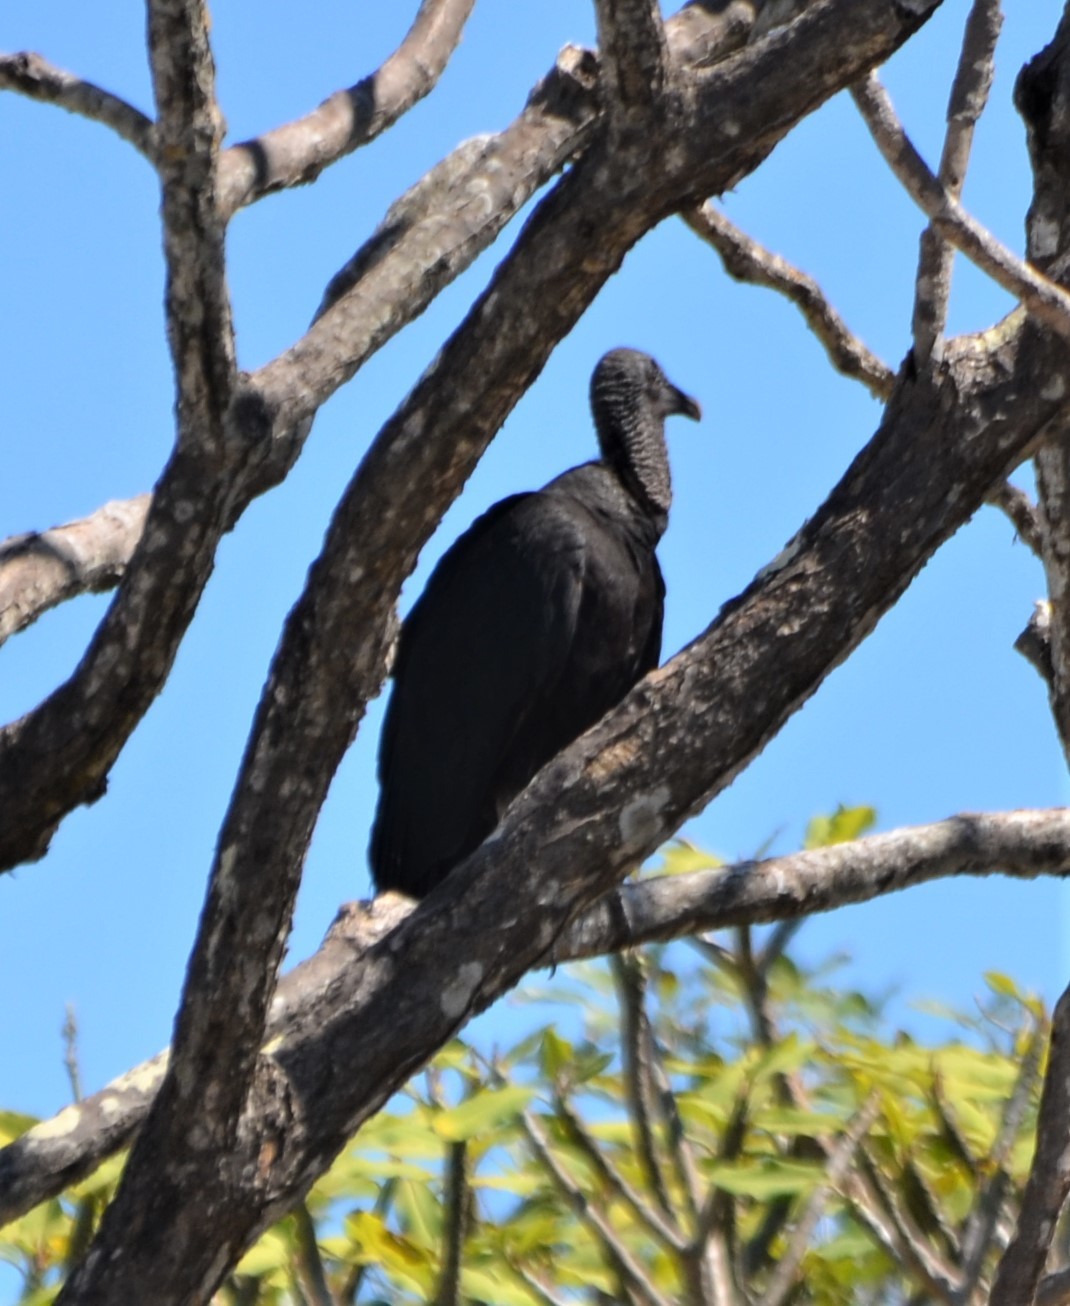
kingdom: Animalia
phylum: Chordata
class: Aves
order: Accipitriformes
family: Cathartidae
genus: Coragyps
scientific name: Coragyps atratus
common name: Black vulture
